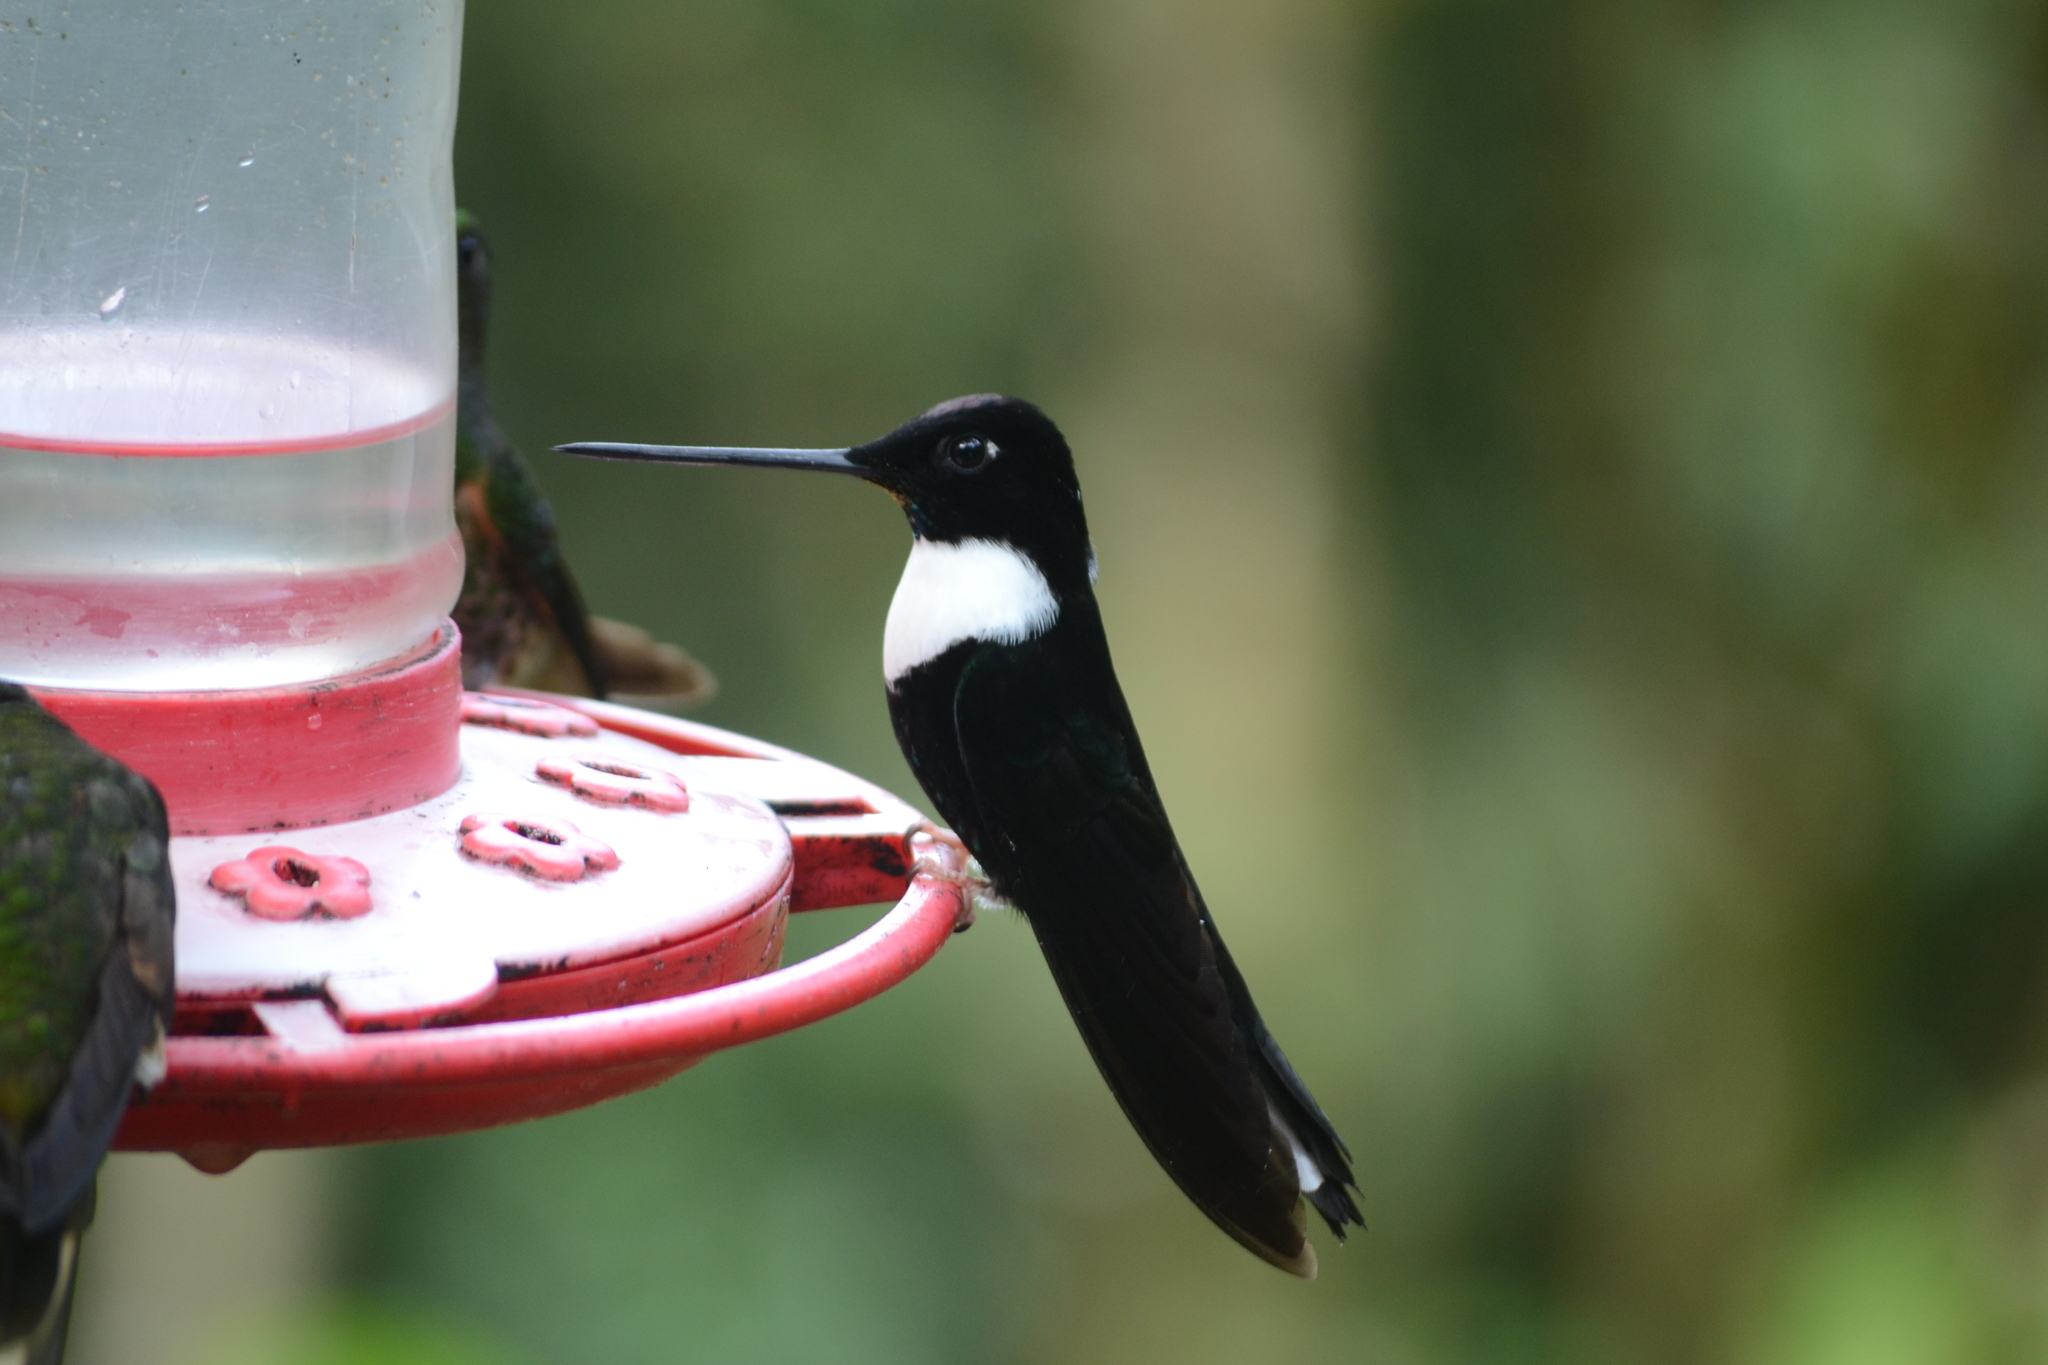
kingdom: Animalia
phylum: Chordata
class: Aves
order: Apodiformes
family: Trochilidae
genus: Coeligena
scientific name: Coeligena torquata
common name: Collared inca
